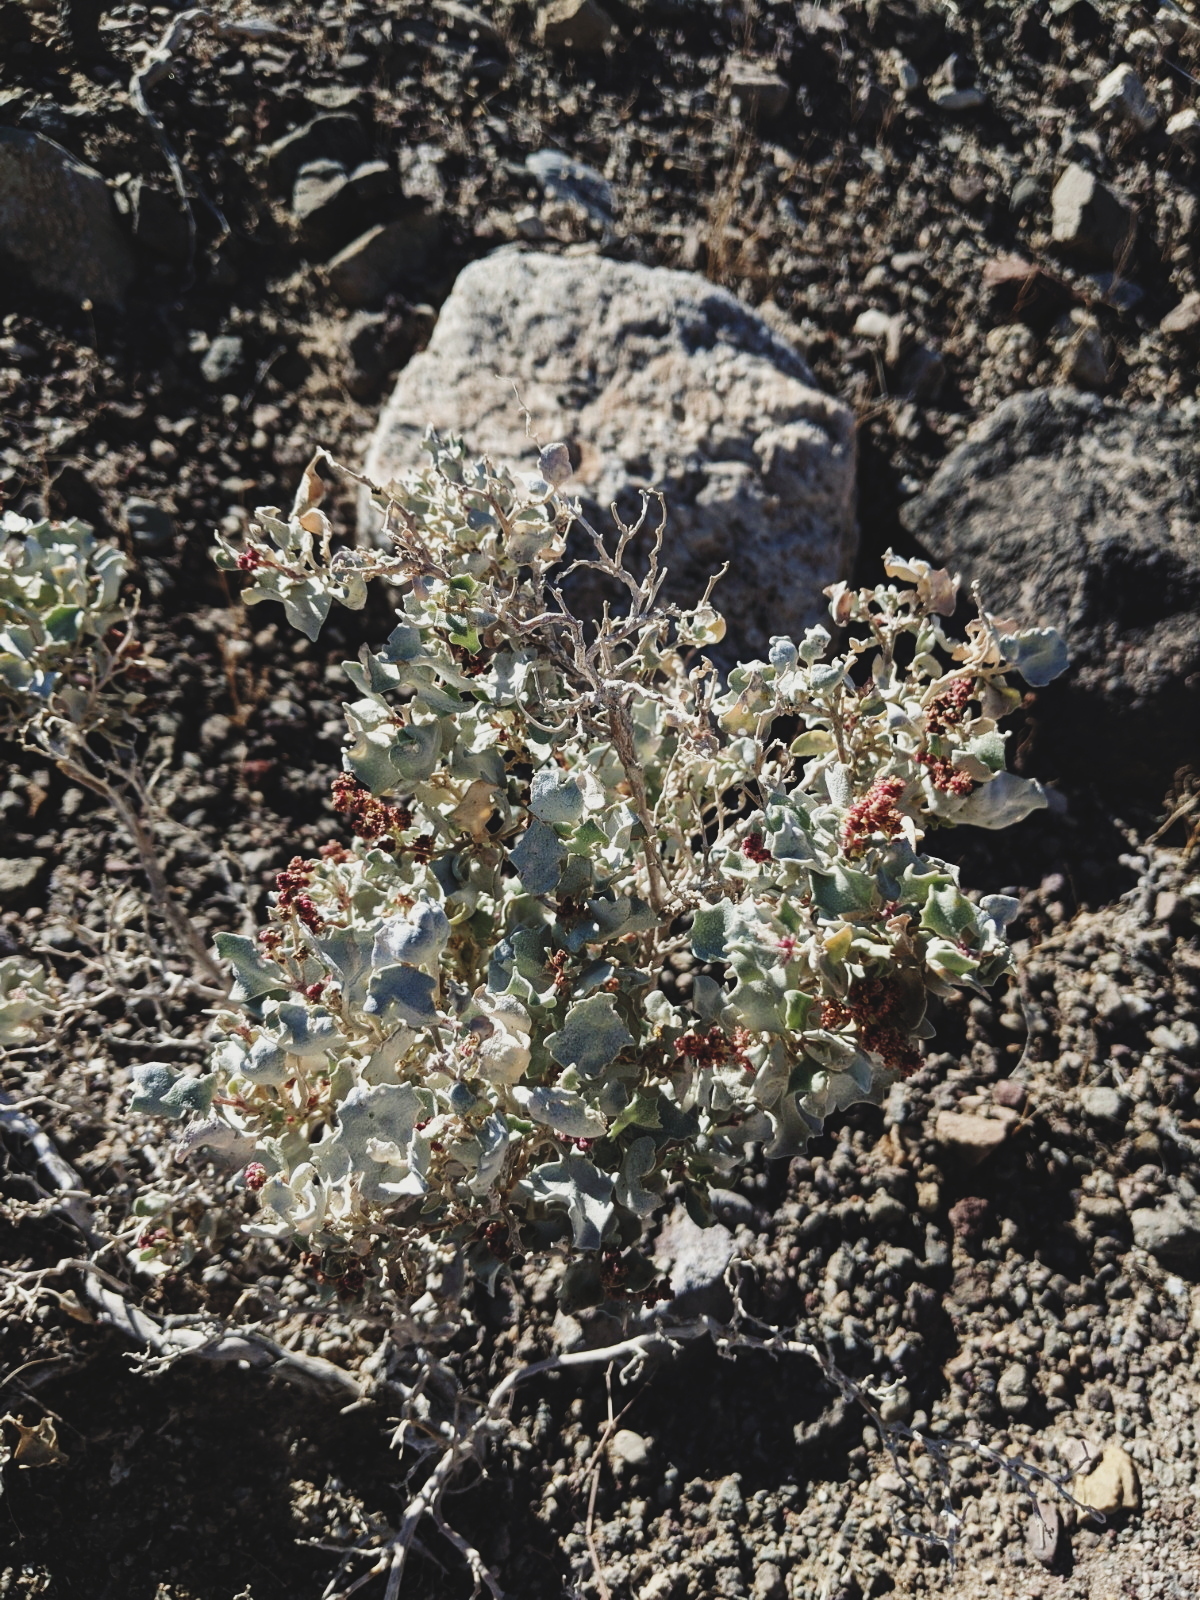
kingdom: Plantae
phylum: Tracheophyta
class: Magnoliopsida
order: Caryophyllales
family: Amaranthaceae
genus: Atriplex
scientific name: Atriplex hymenelytra
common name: Desert-holly
